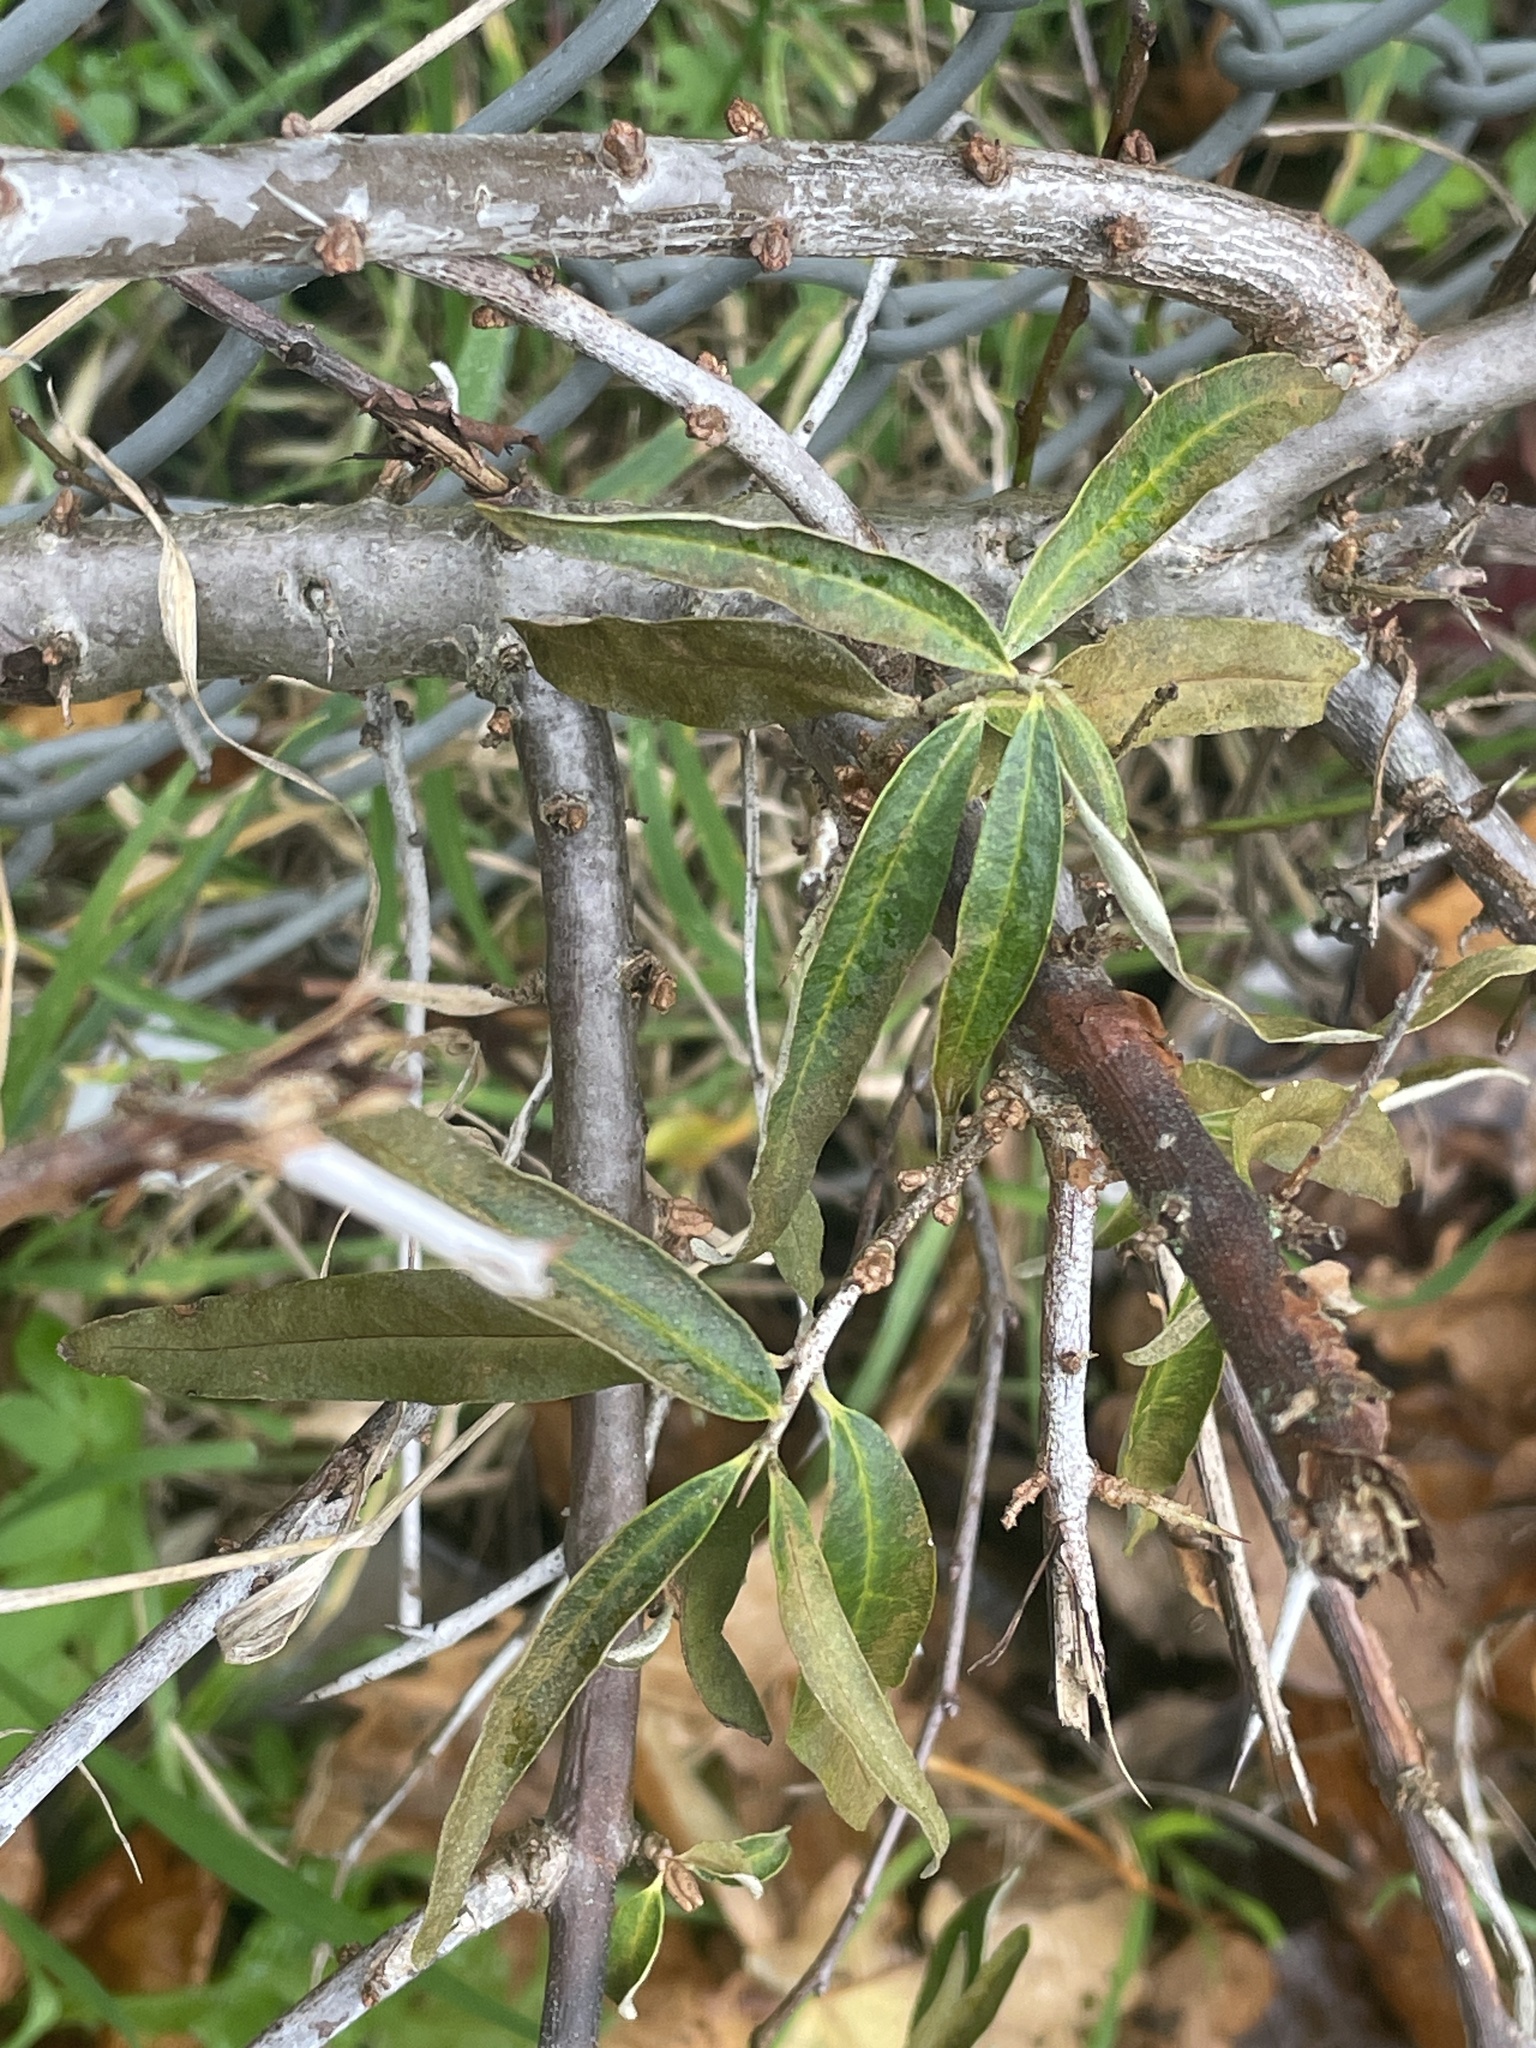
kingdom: Plantae
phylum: Tracheophyta
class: Magnoliopsida
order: Rosales
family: Elaeagnaceae
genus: Hippophae
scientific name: Hippophae rhamnoides
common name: Sea-buckthorn
